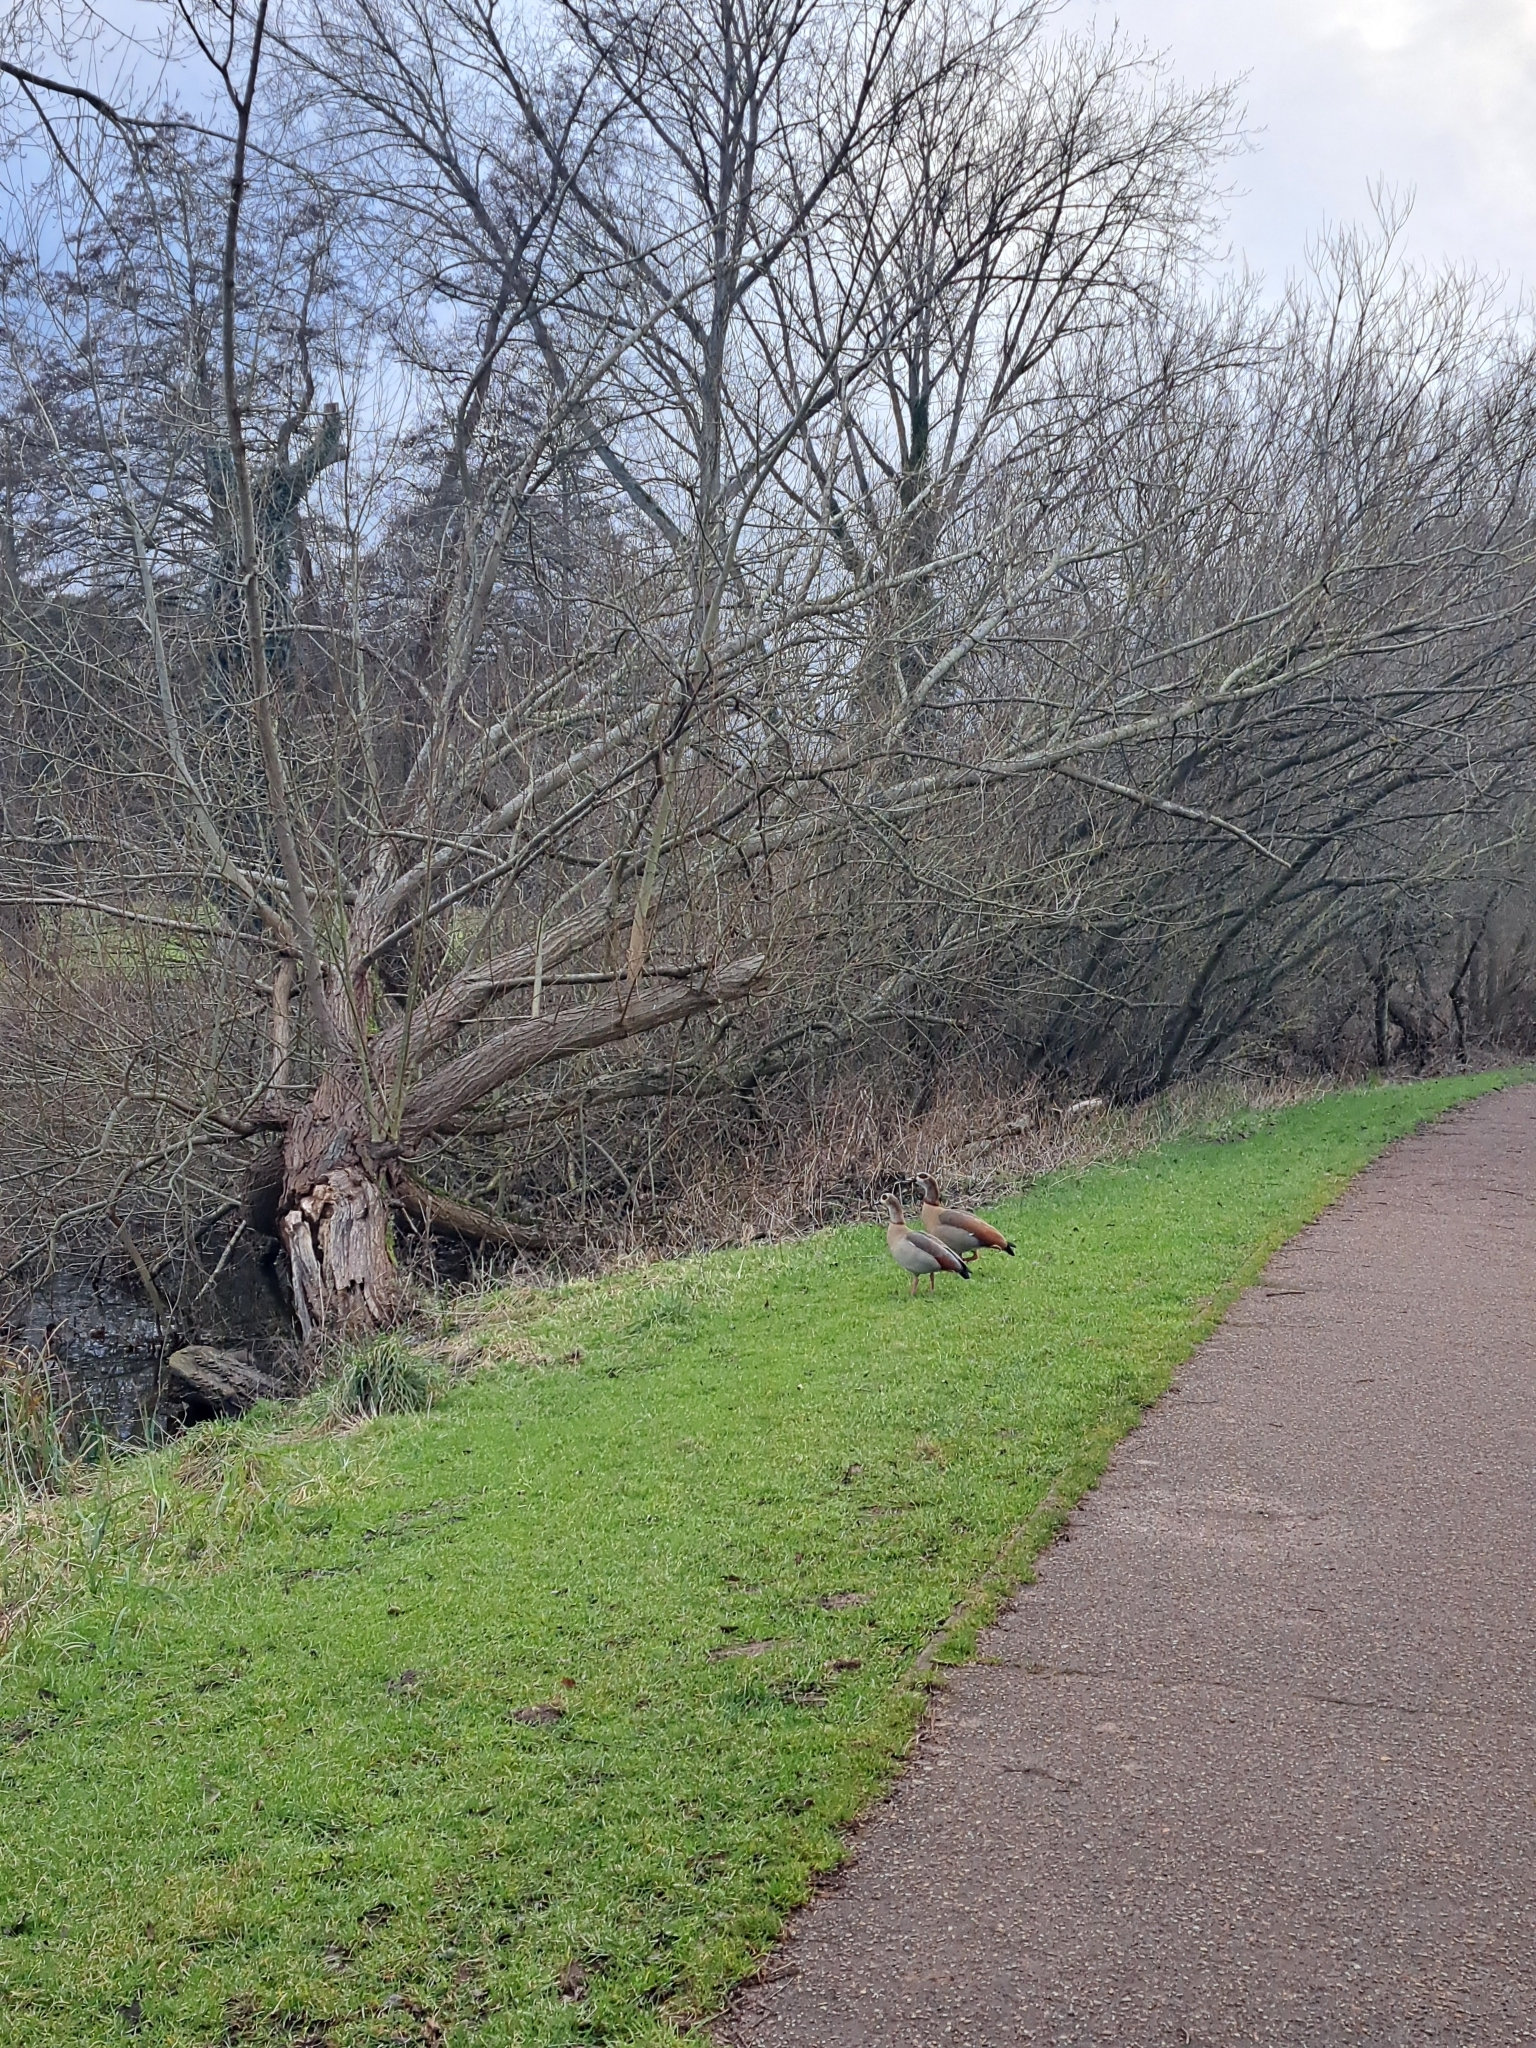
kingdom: Animalia
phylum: Chordata
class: Aves
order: Anseriformes
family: Anatidae
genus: Alopochen
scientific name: Alopochen aegyptiaca
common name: Egyptian goose
